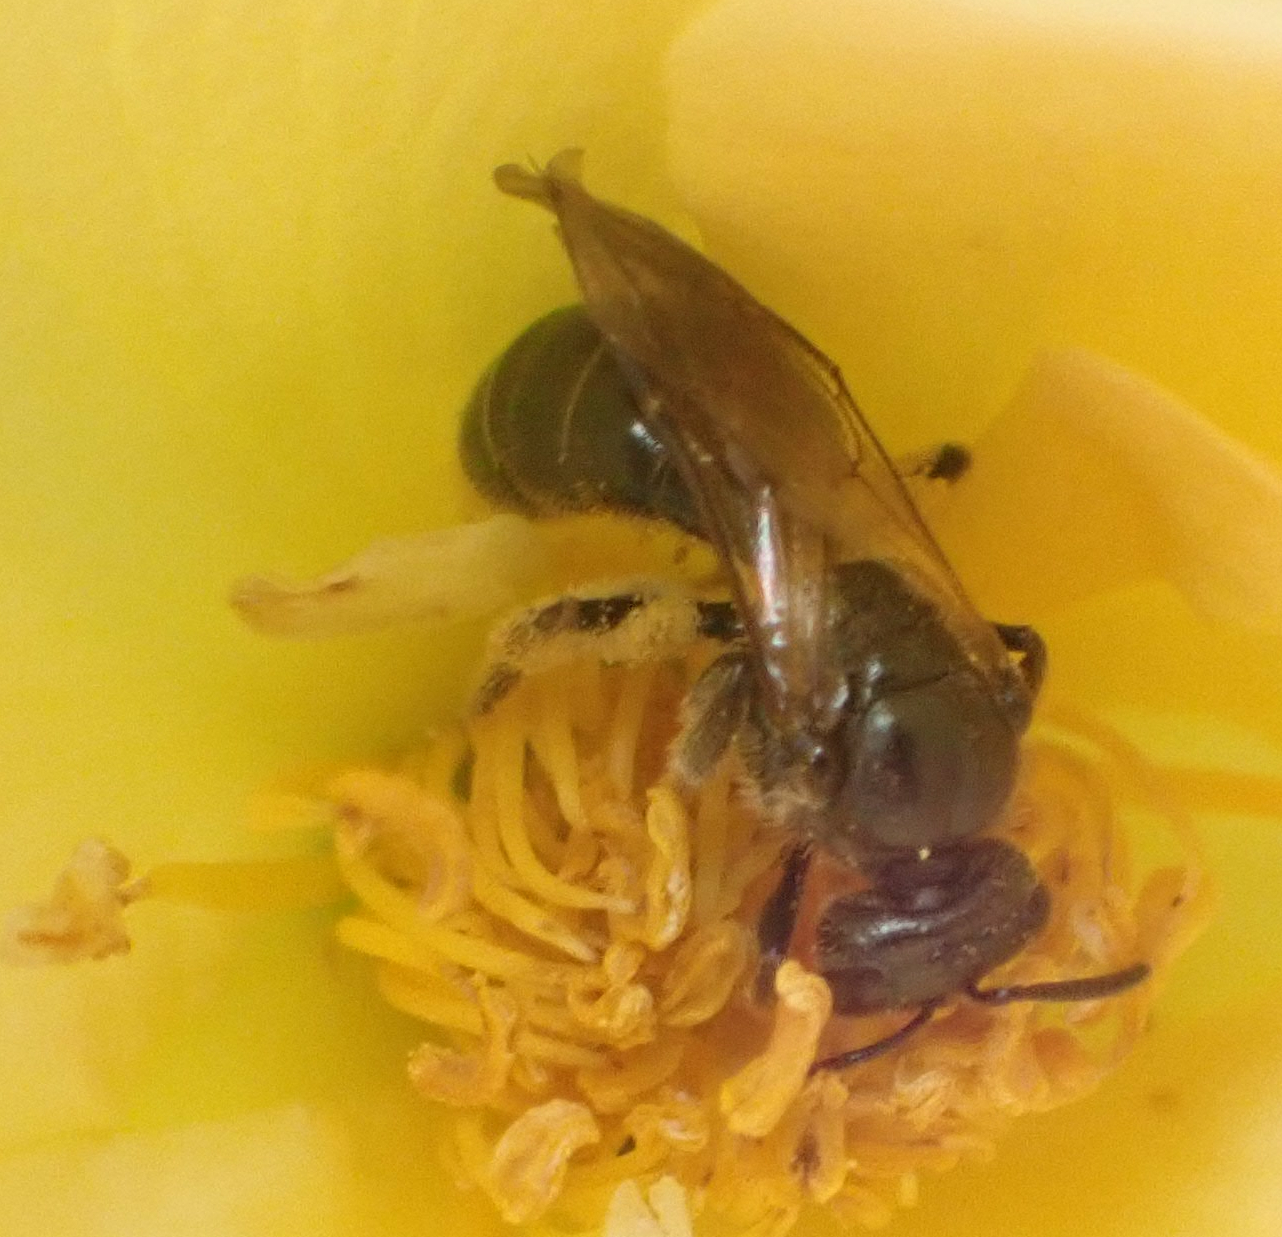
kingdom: Animalia
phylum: Arthropoda
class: Insecta
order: Hymenoptera
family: Halictidae
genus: Lasioglossum
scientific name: Lasioglossum nigroviride
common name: Black-and-green dialictus sweat bee
